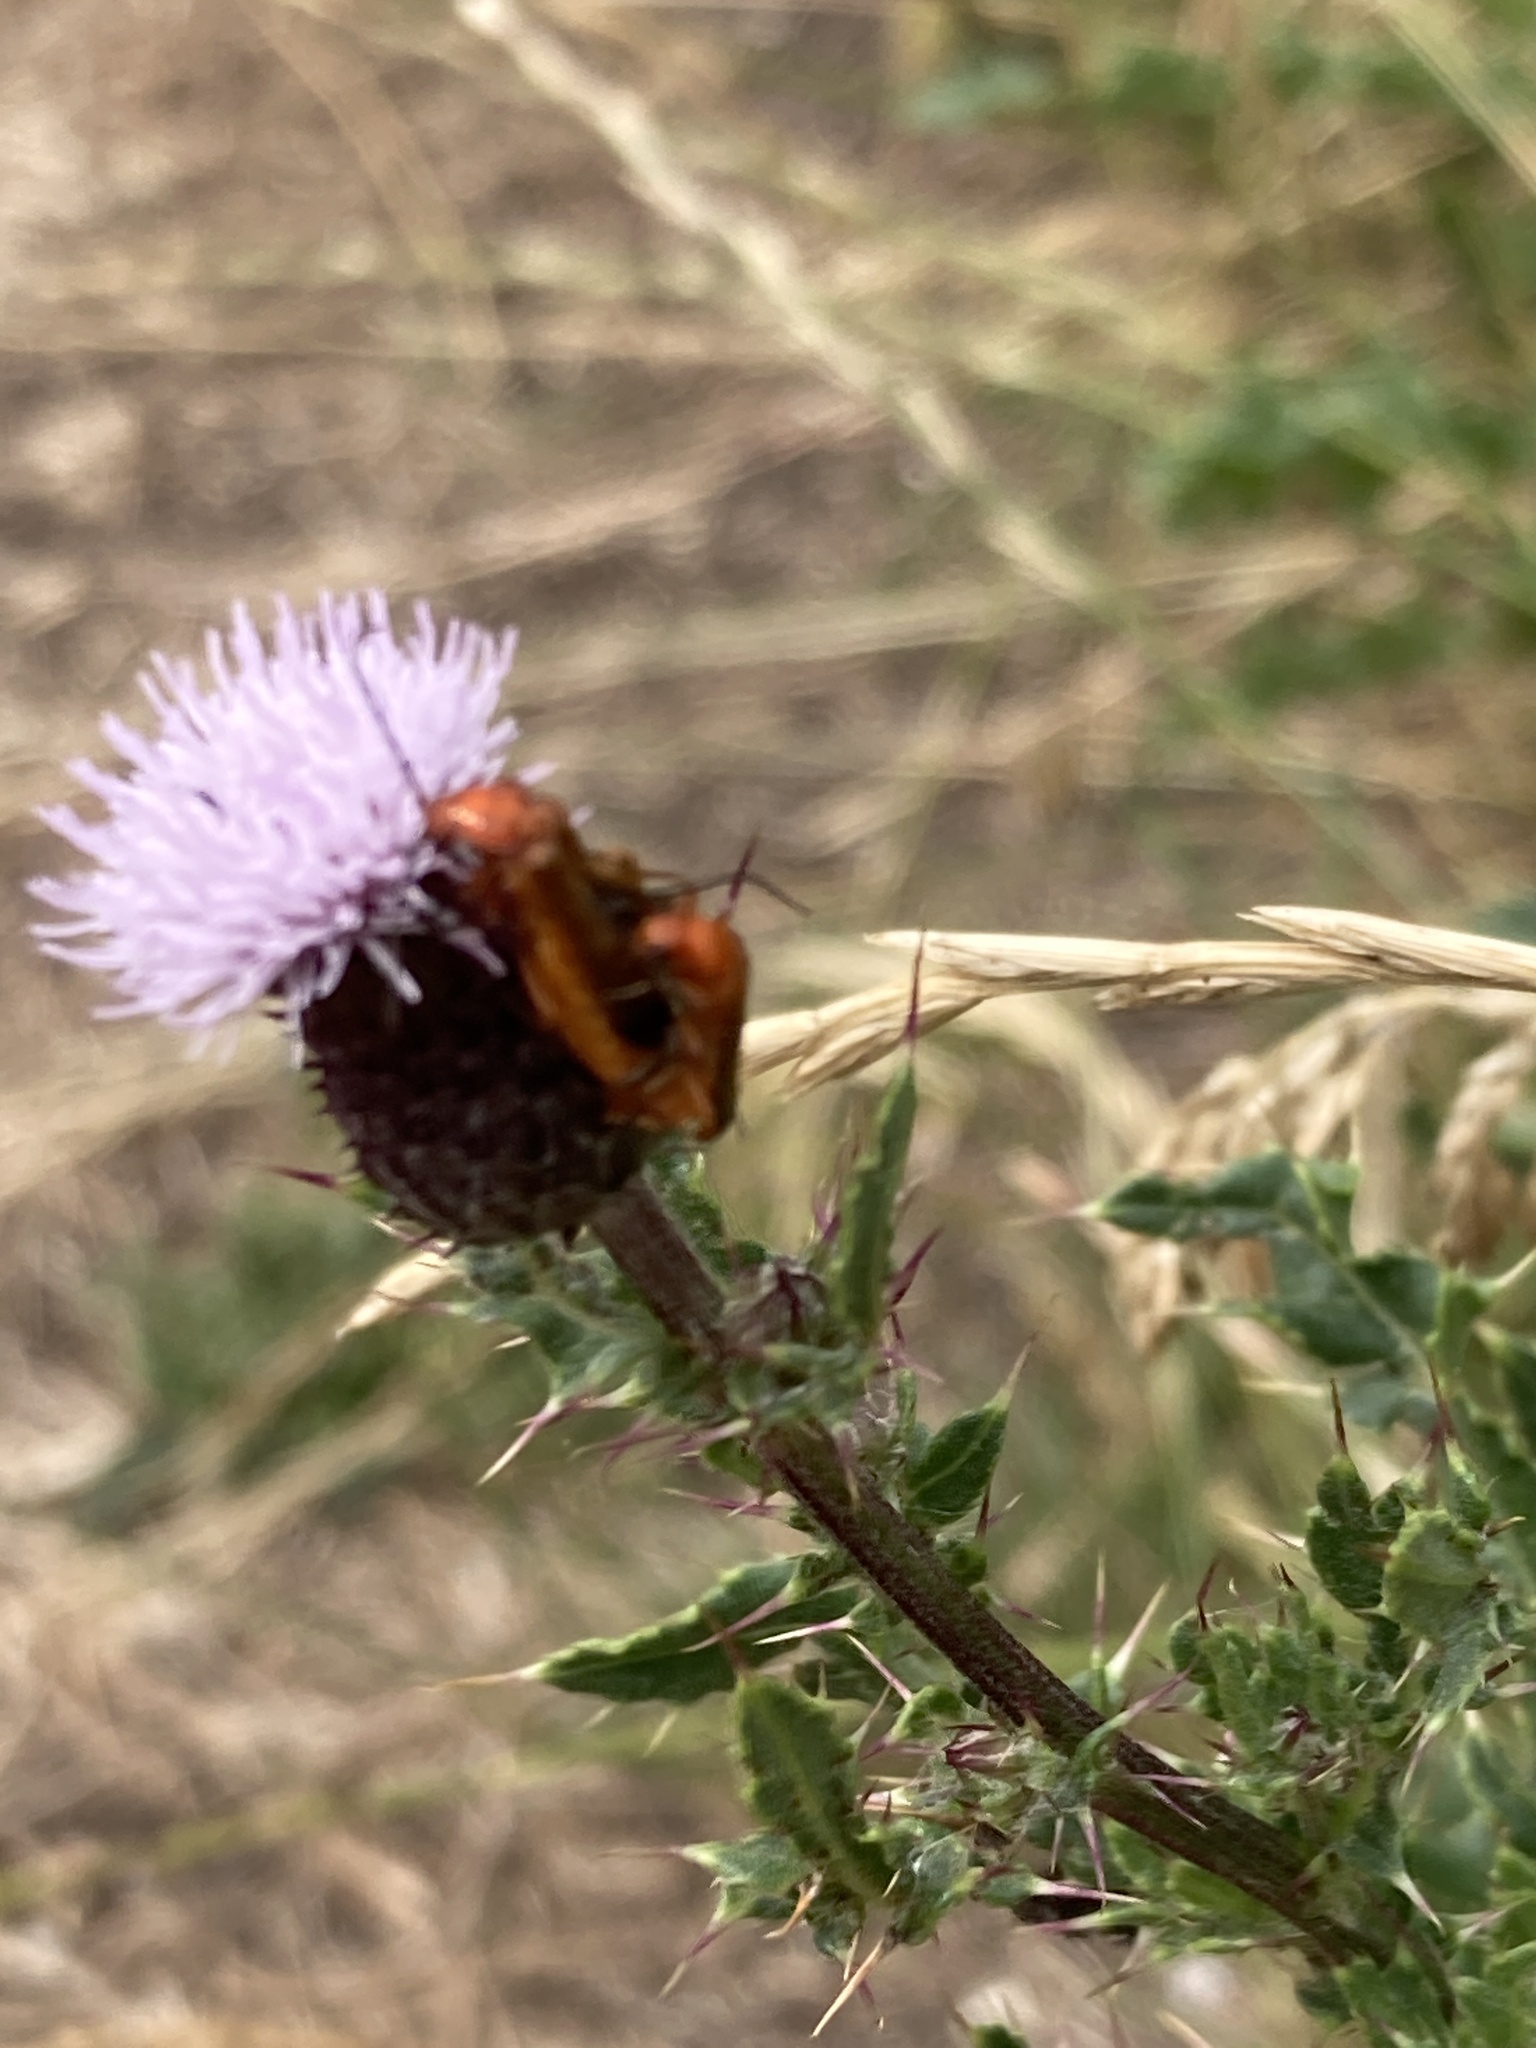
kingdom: Animalia
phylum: Arthropoda
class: Insecta
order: Coleoptera
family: Cantharidae
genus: Rhagonycha
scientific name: Rhagonycha fulva
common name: Common red soldier beetle
